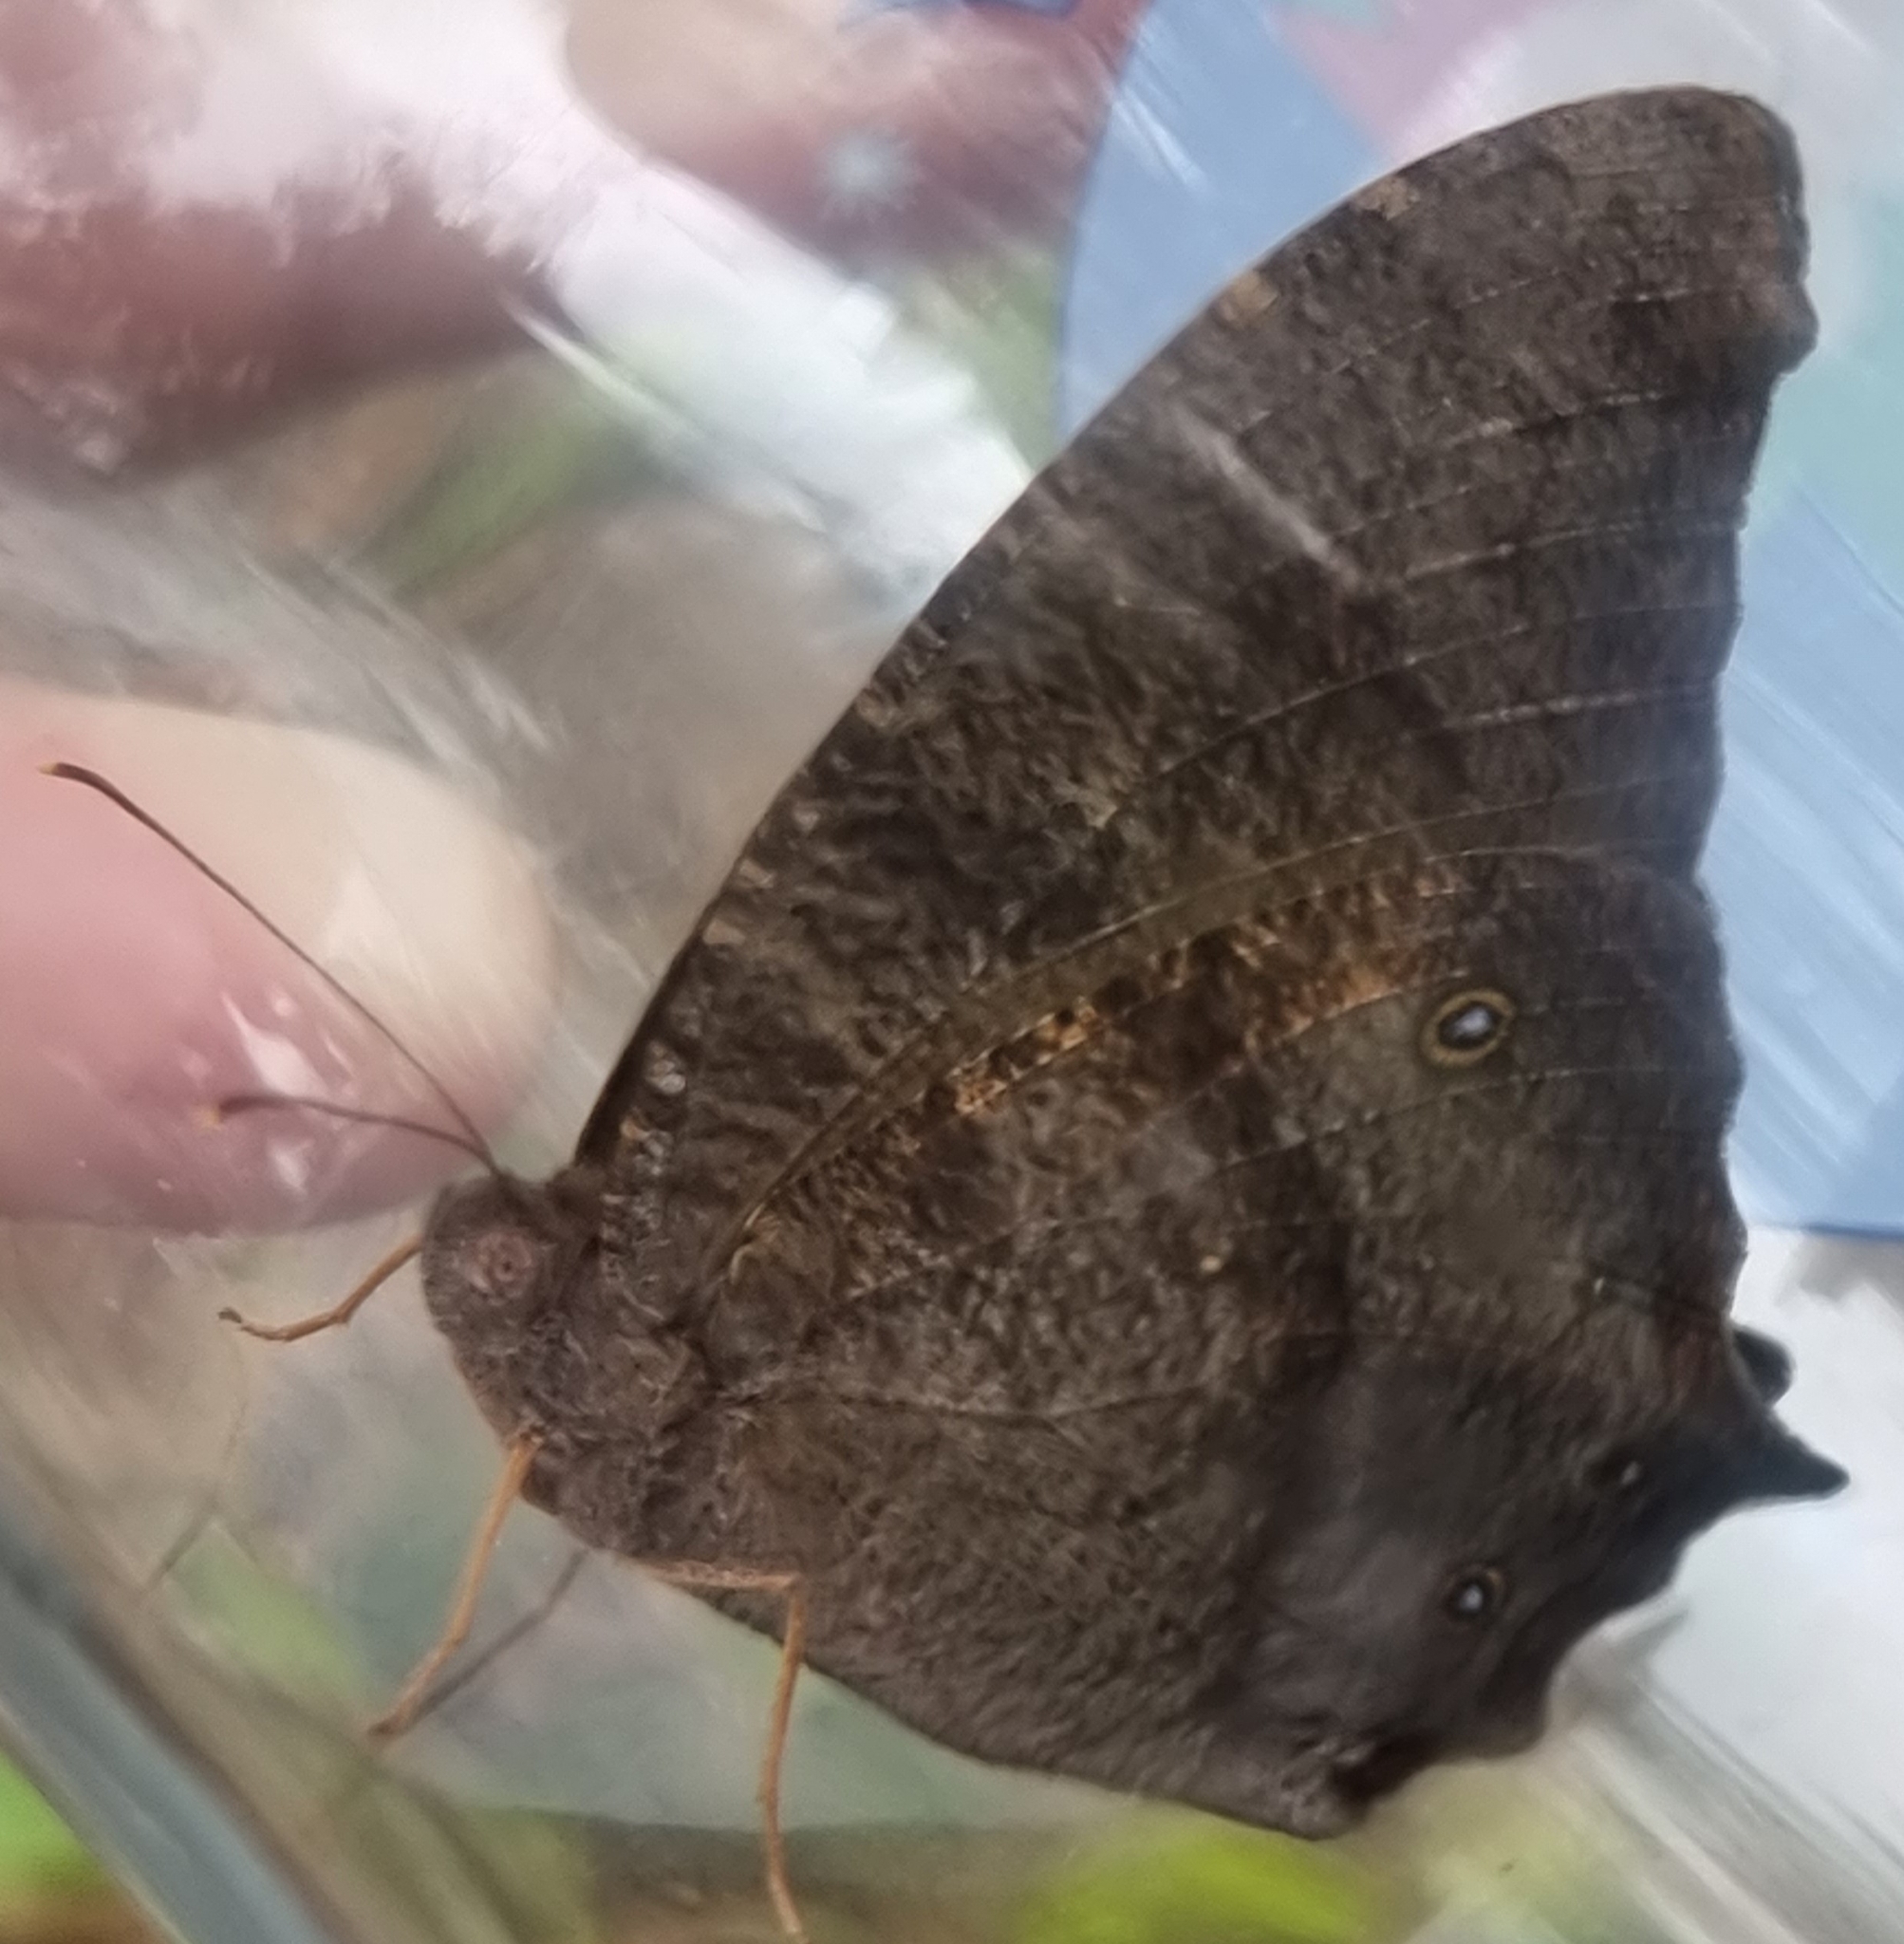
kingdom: Animalia
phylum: Arthropoda
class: Insecta
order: Lepidoptera
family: Nymphalidae
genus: Melanitis
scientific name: Melanitis leda
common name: Twilight brown
